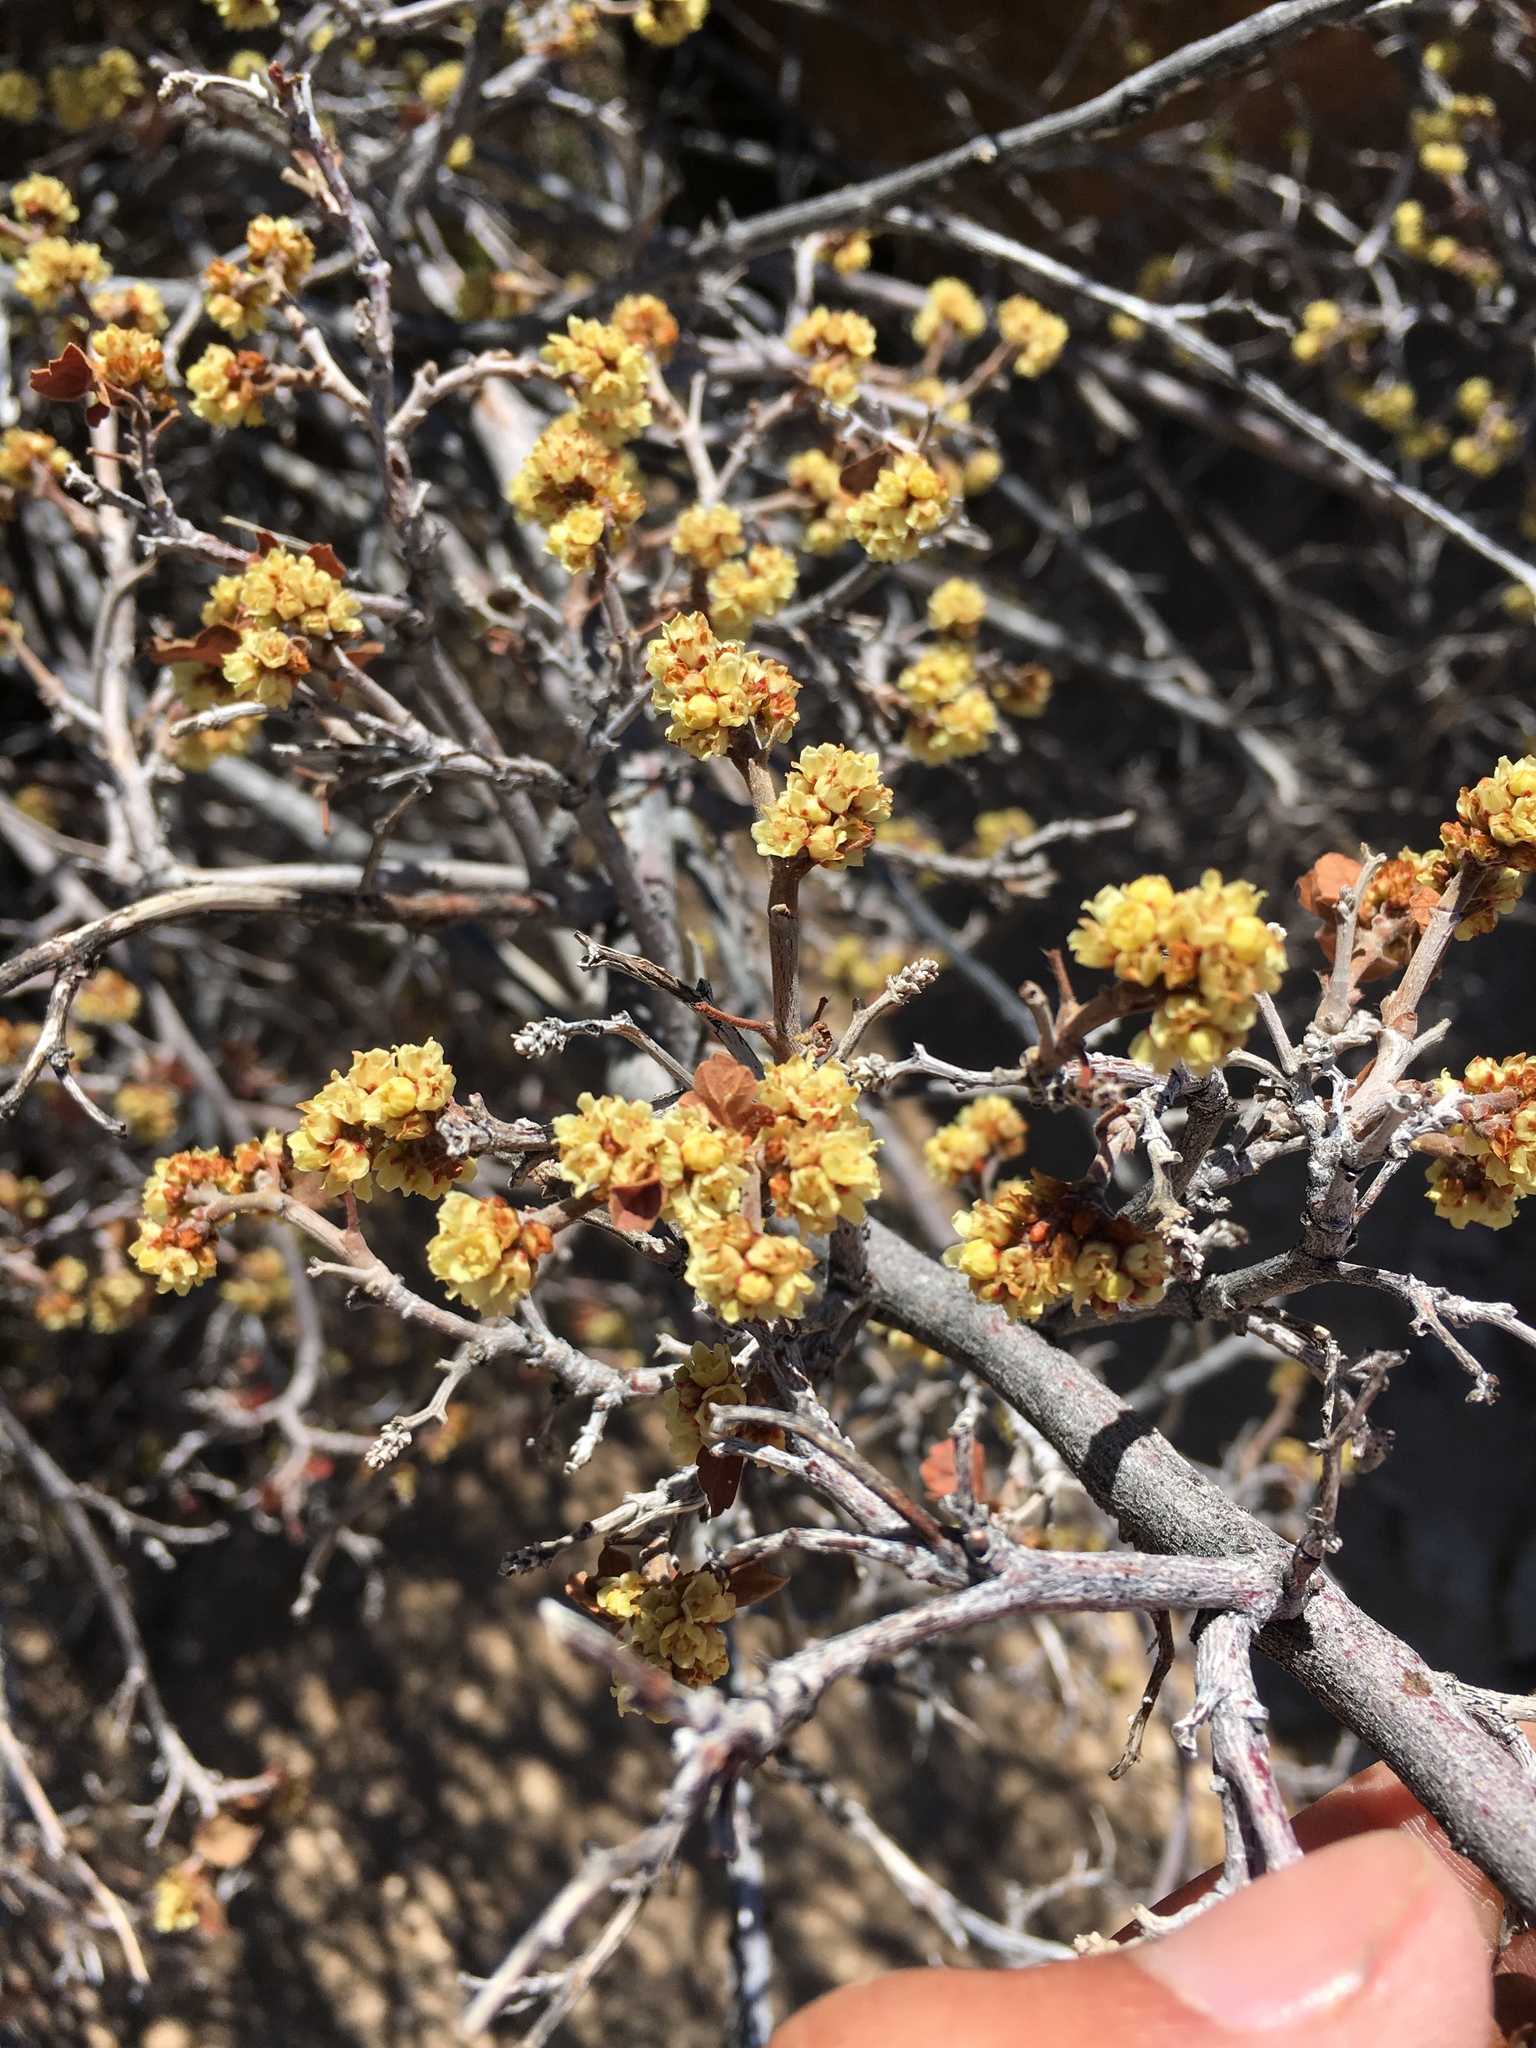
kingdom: Plantae
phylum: Tracheophyta
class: Magnoliopsida
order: Sapindales
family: Anacardiaceae
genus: Rhus
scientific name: Rhus aromatica
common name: Aromatic sumac
